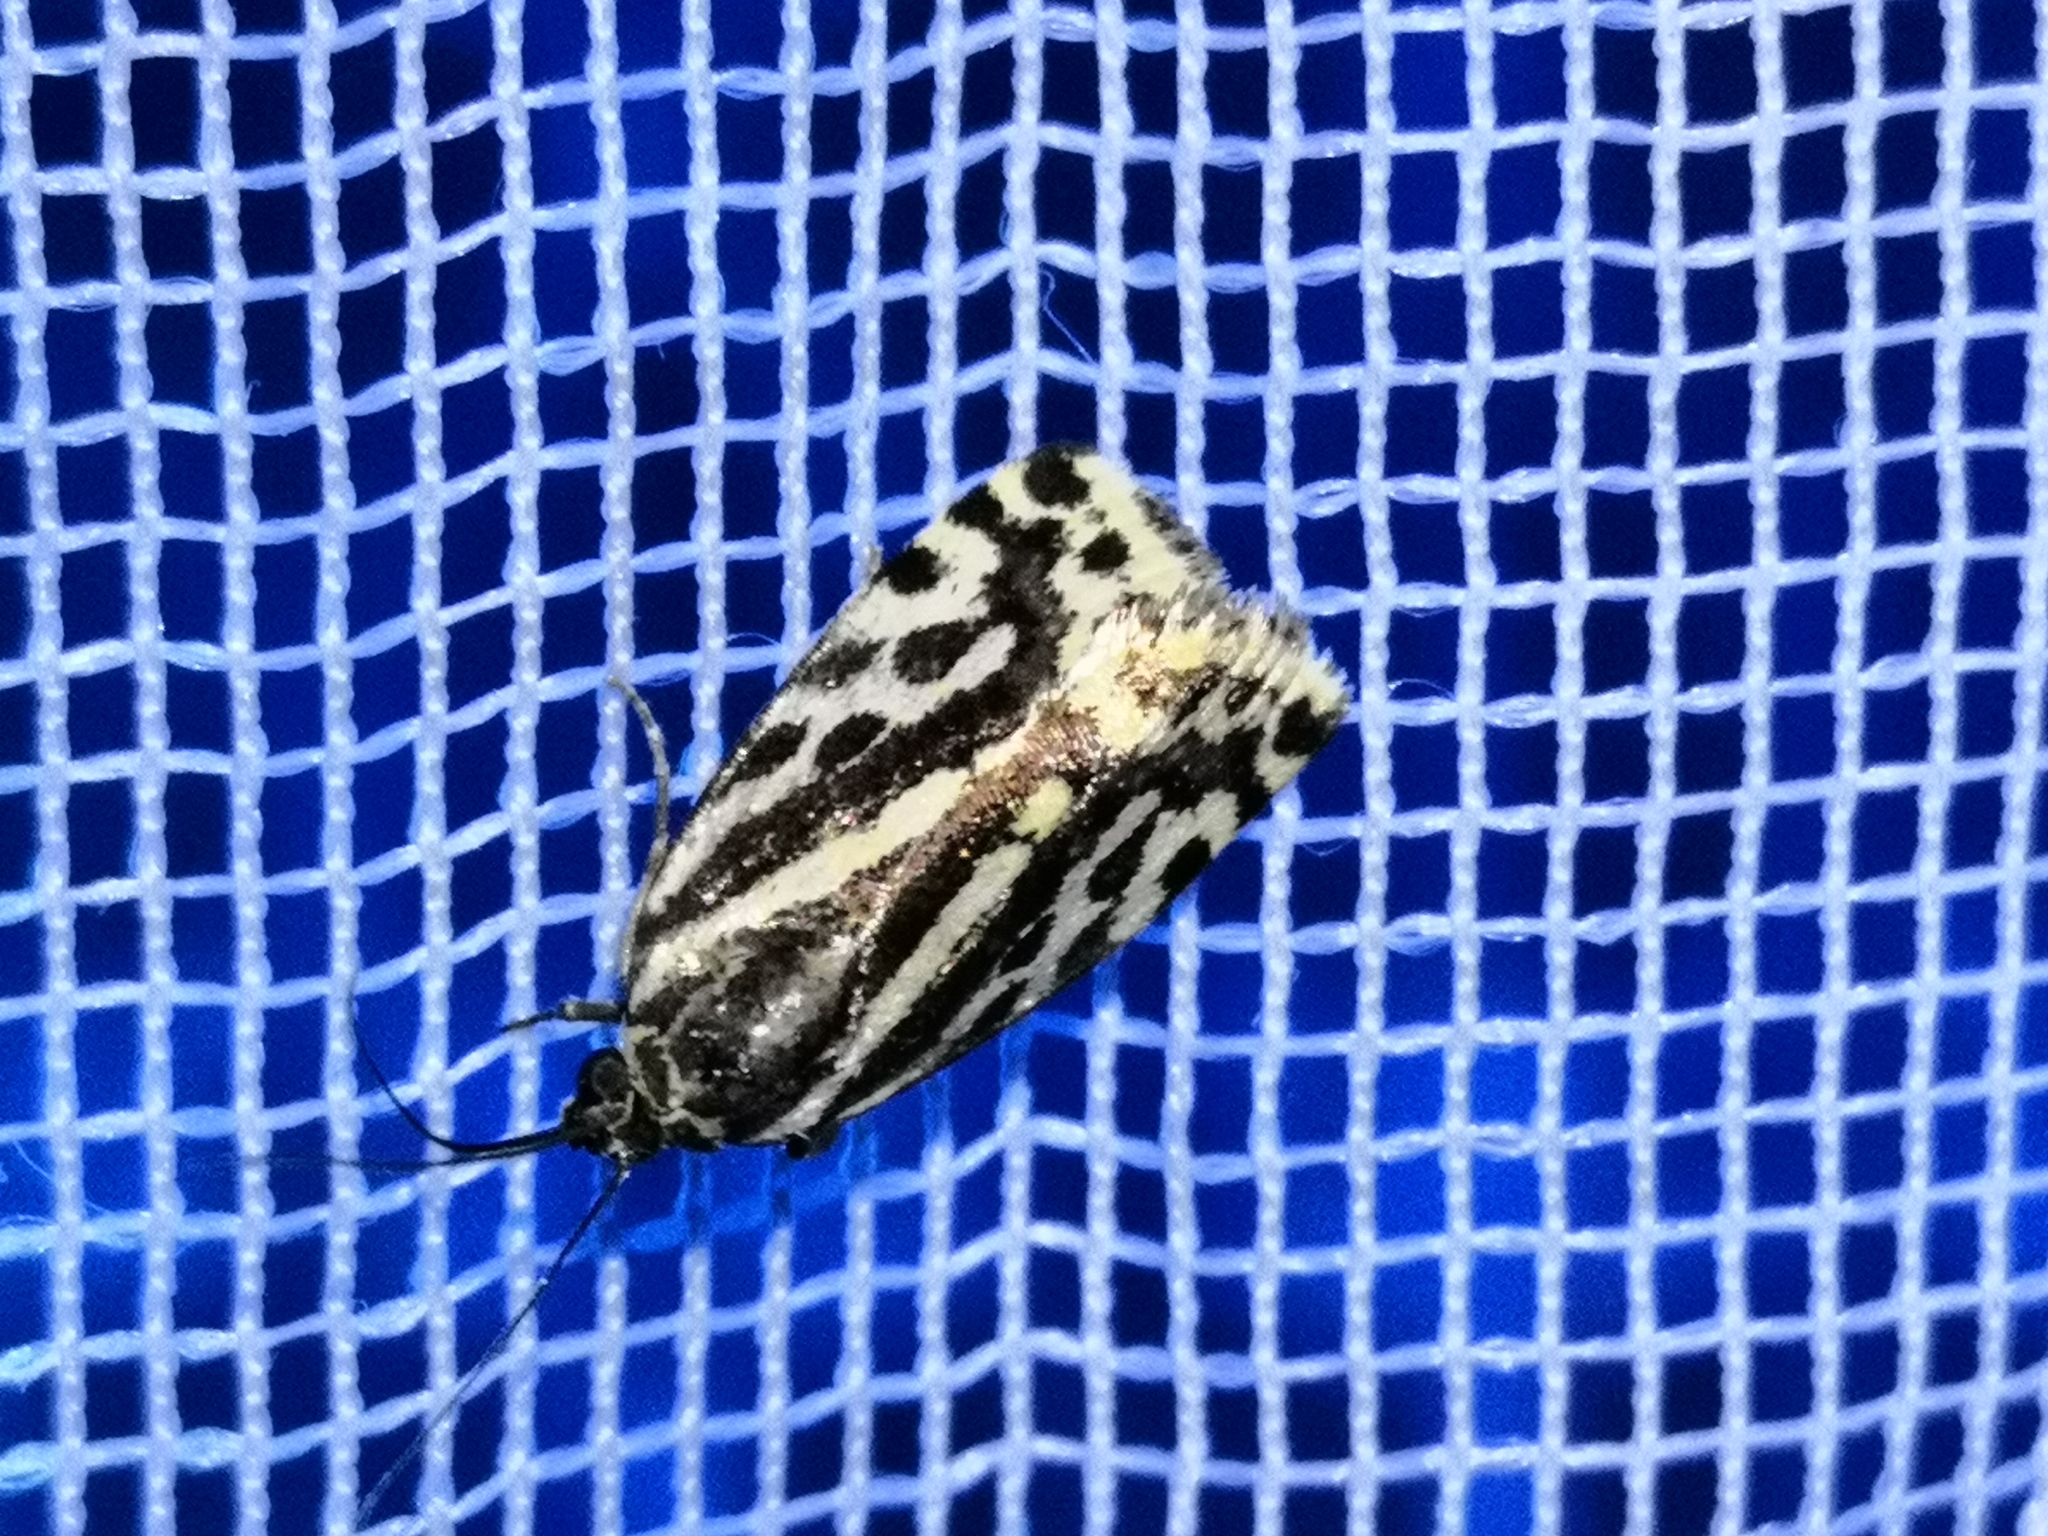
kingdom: Animalia
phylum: Arthropoda
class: Insecta
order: Lepidoptera
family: Noctuidae
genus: Acontia
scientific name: Acontia trabealis
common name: Spotted sulphur
